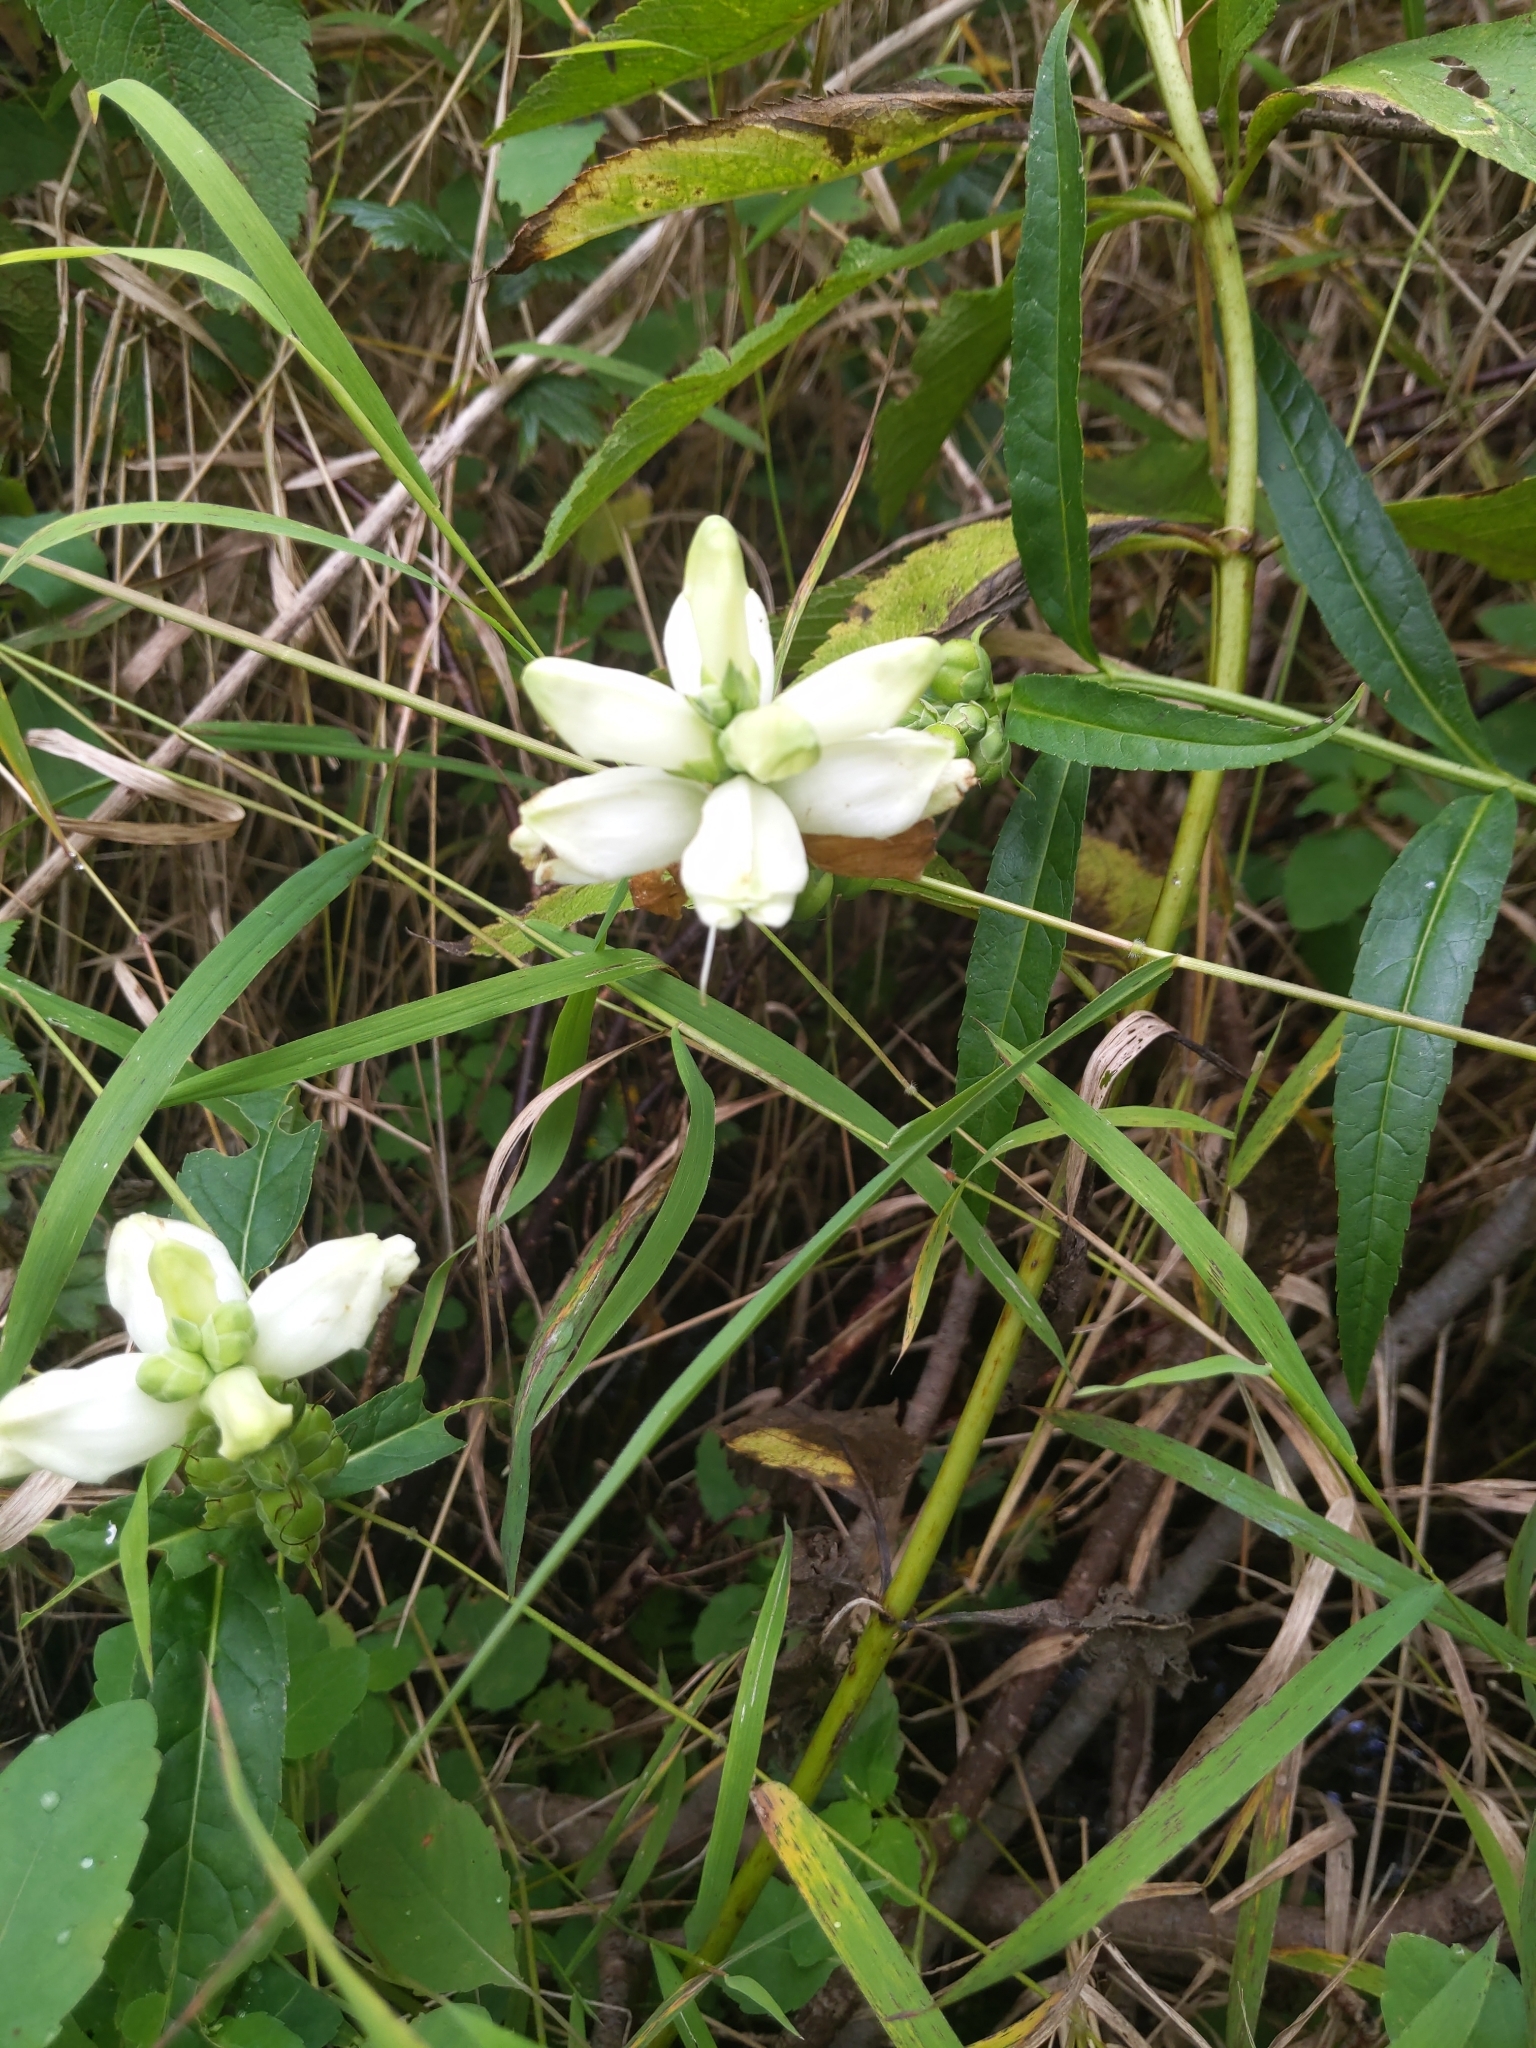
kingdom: Plantae
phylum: Tracheophyta
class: Magnoliopsida
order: Lamiales
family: Plantaginaceae
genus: Chelone
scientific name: Chelone glabra
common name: Snakehead
